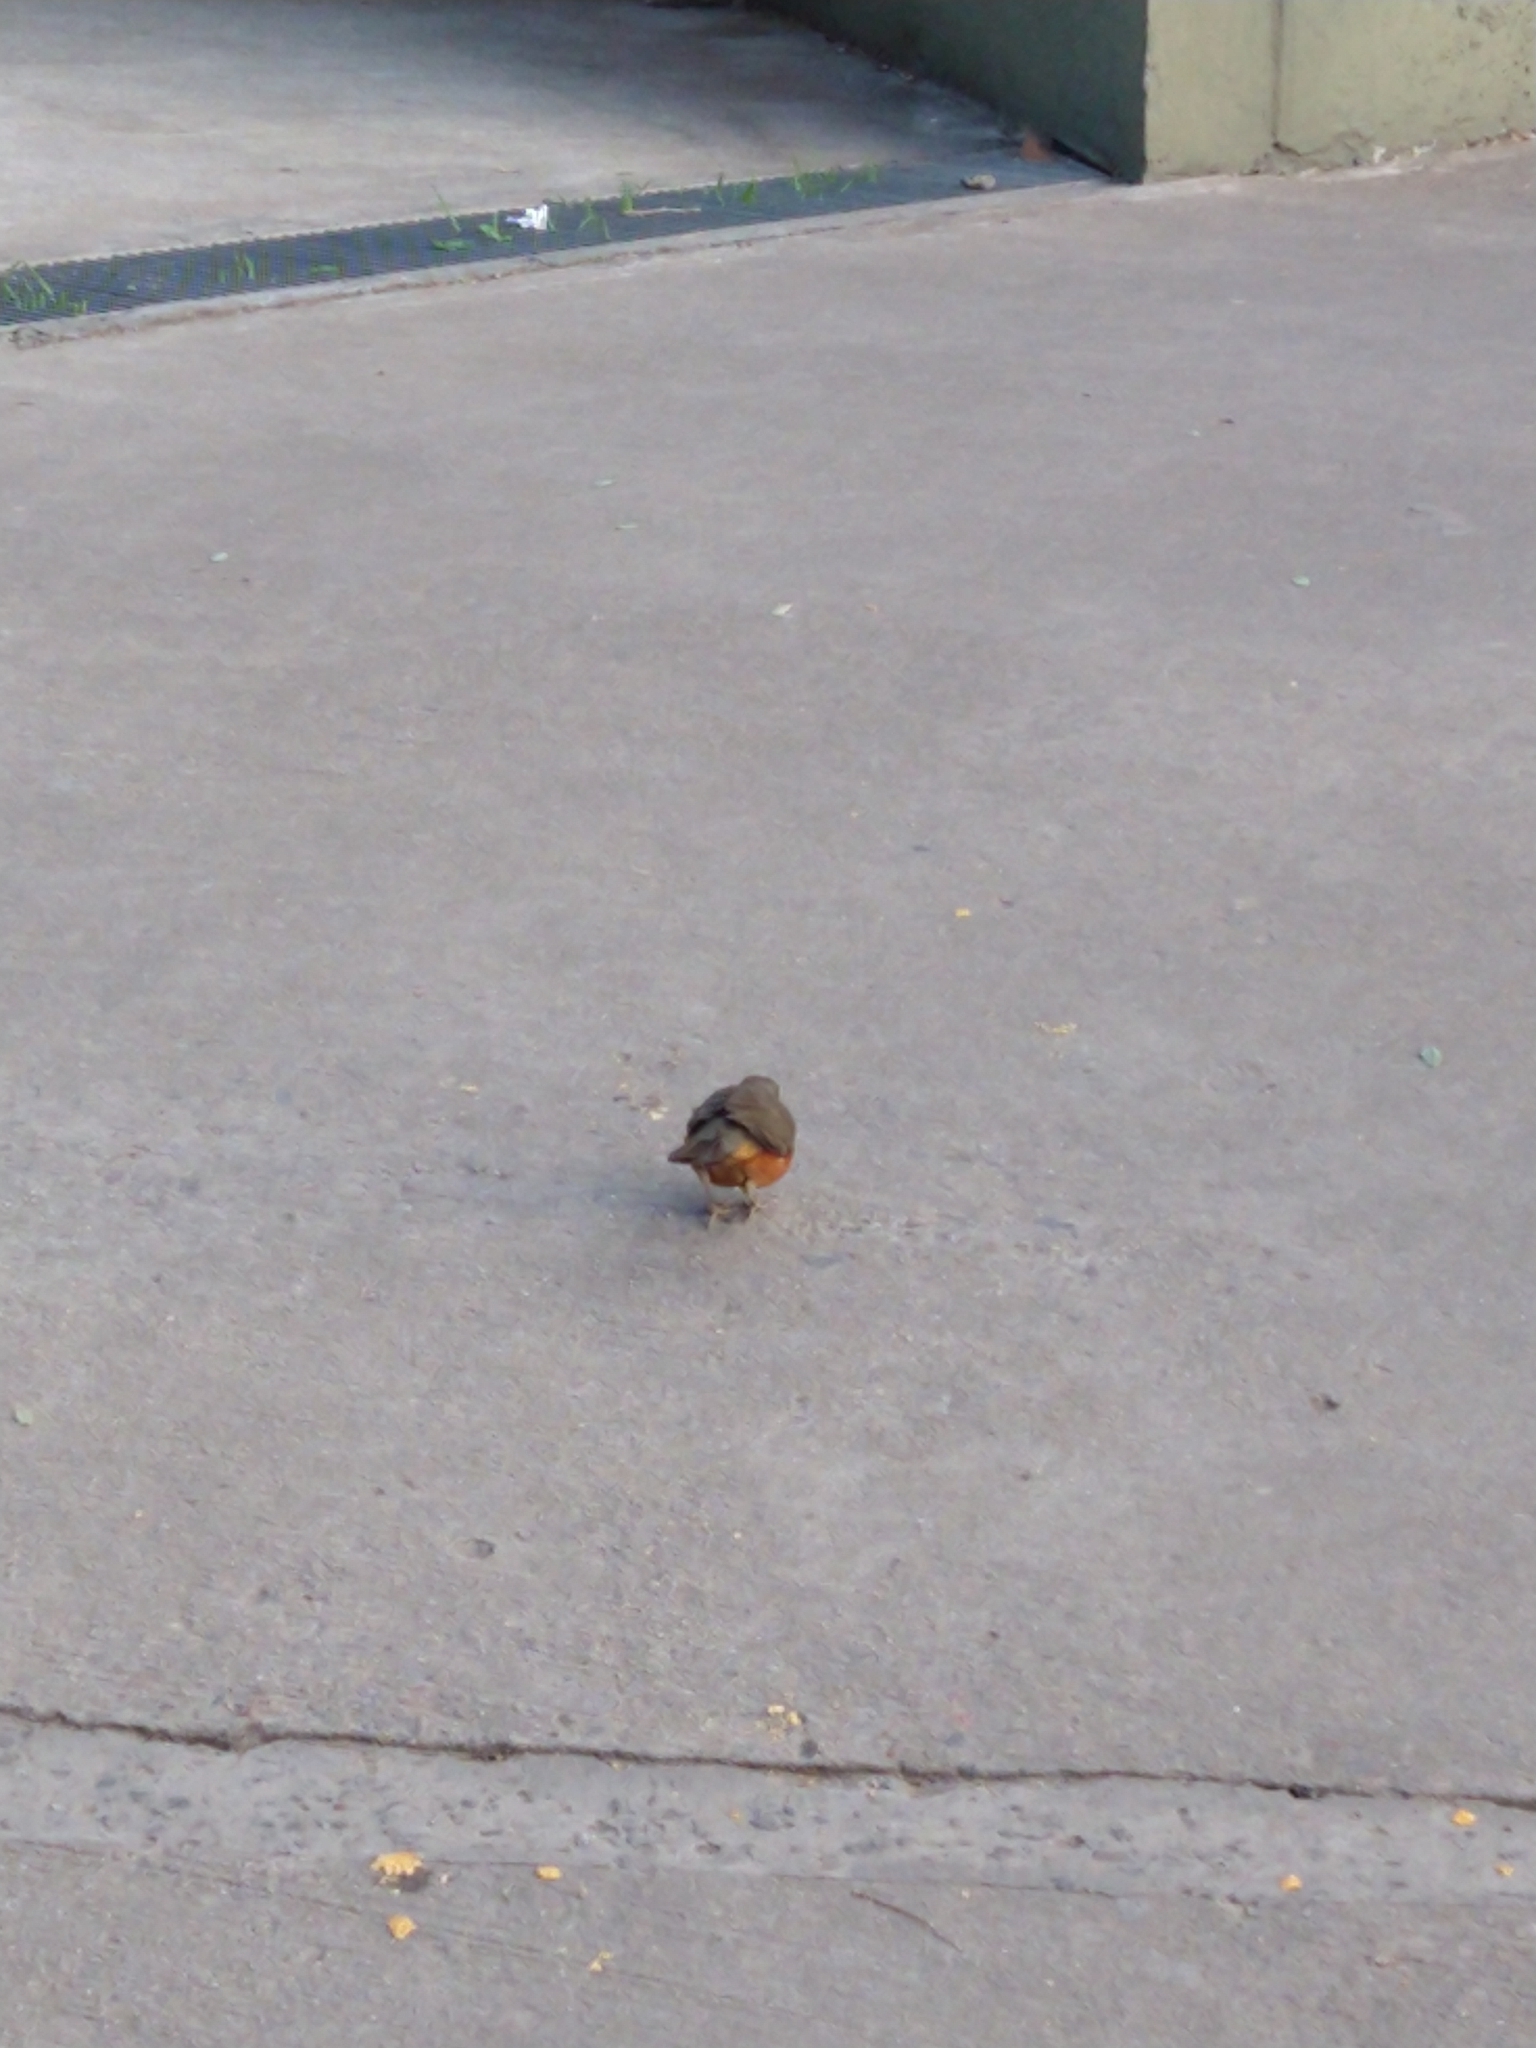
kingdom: Animalia
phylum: Chordata
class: Aves
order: Passeriformes
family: Turdidae
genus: Turdus
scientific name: Turdus rufiventris
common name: Rufous-bellied thrush
